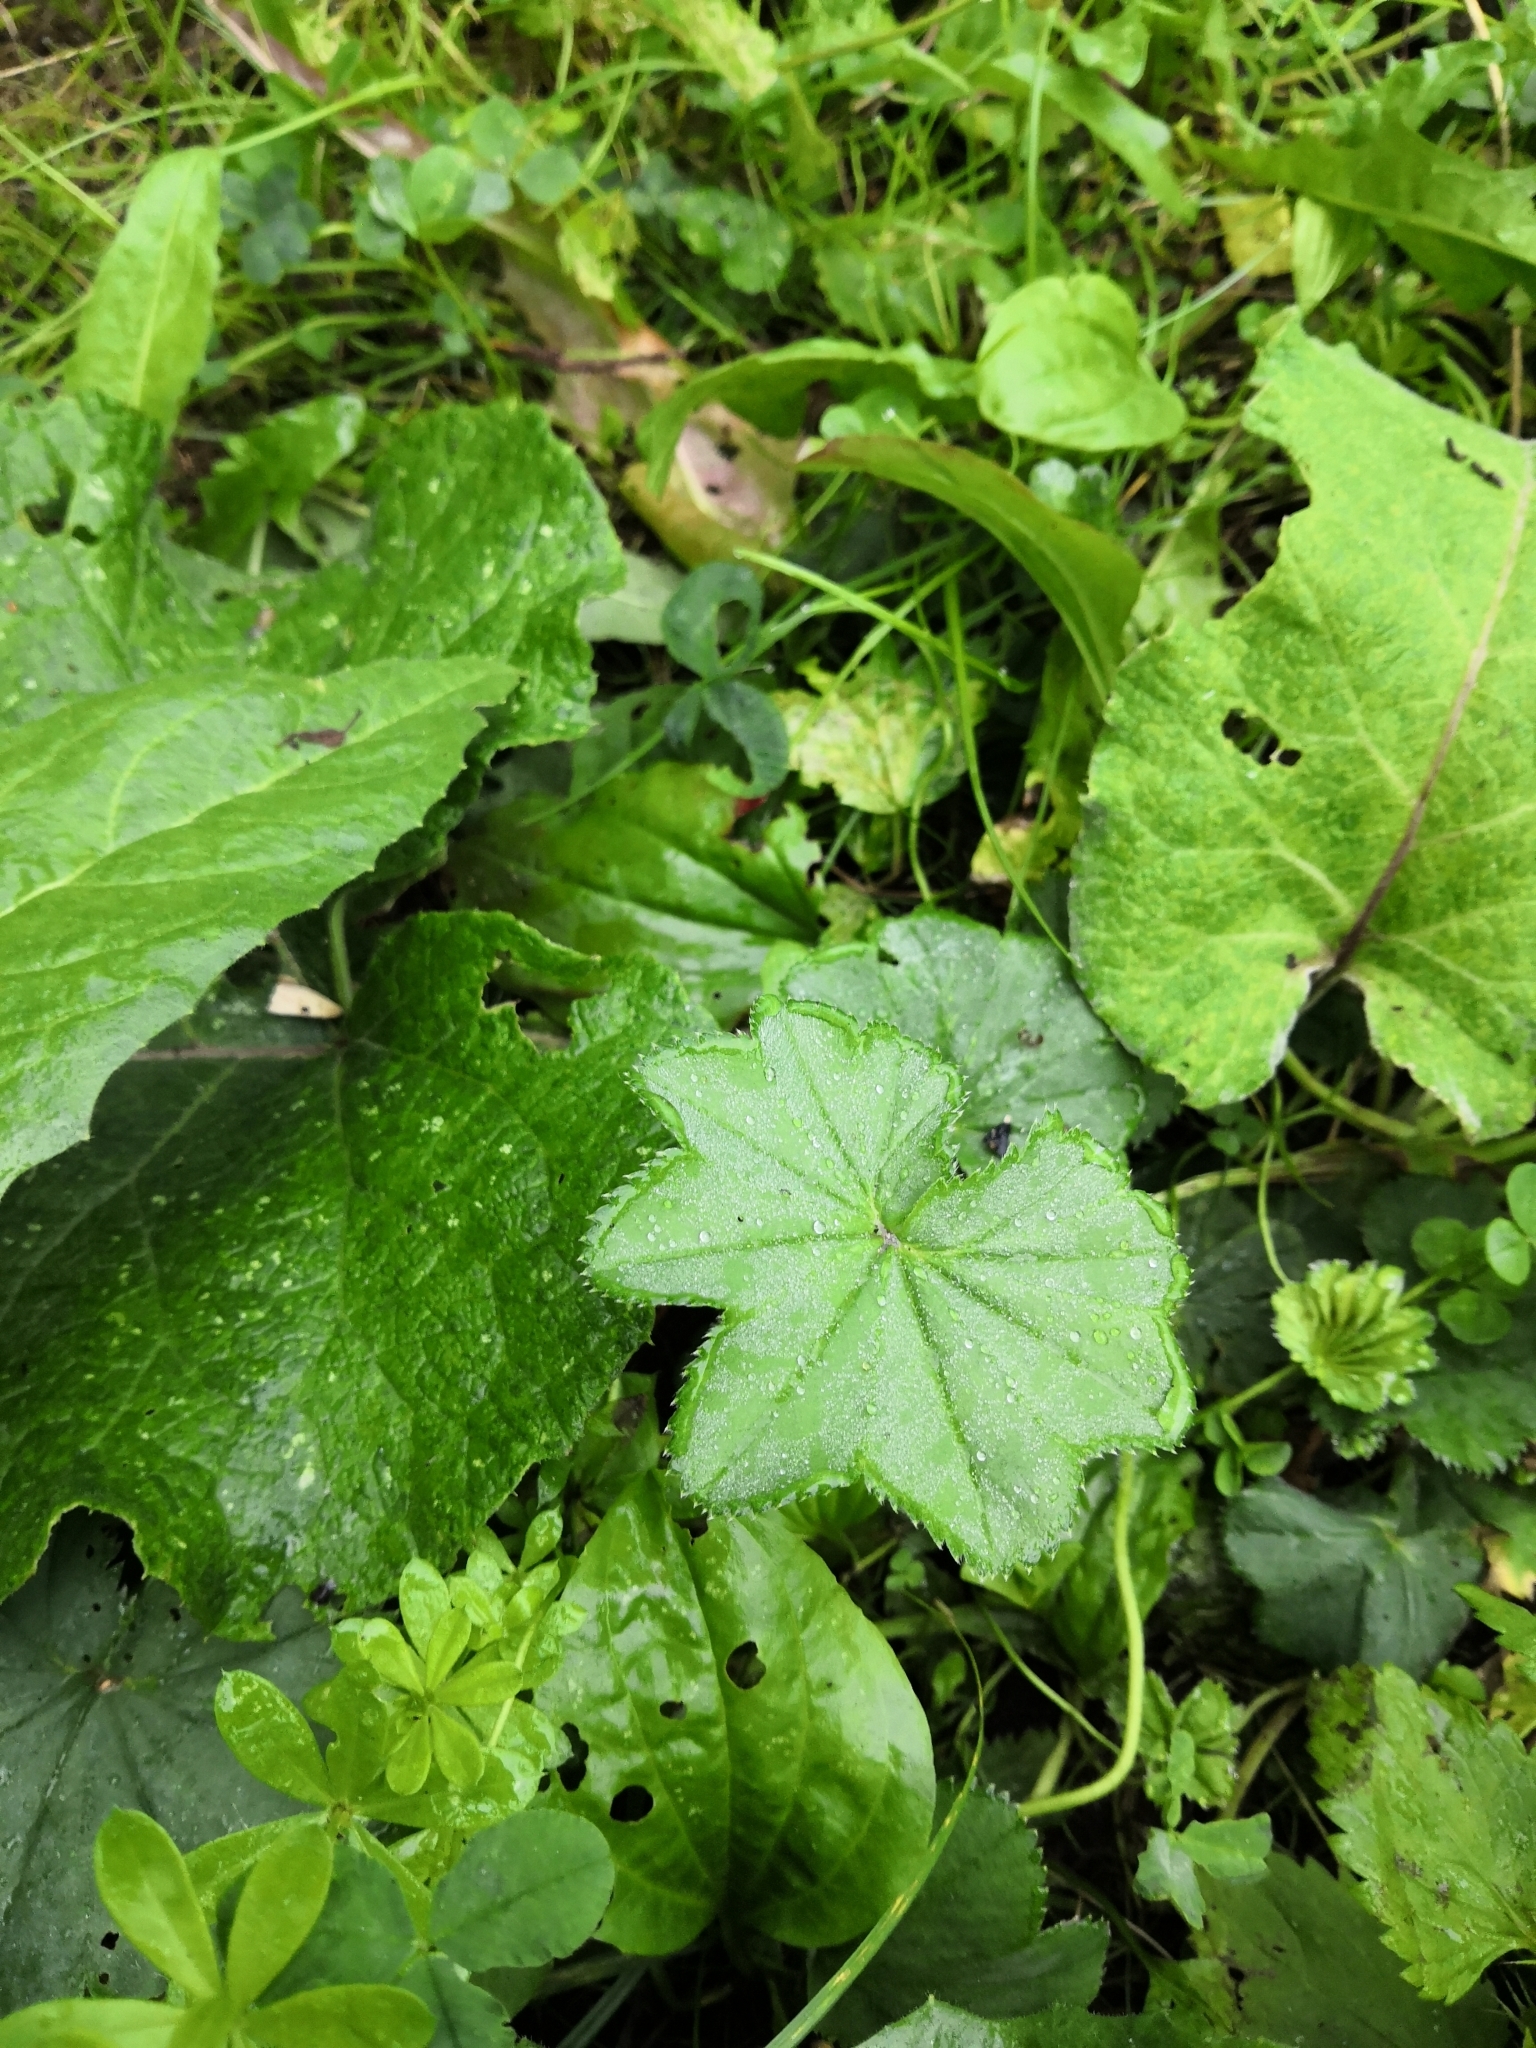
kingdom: Plantae
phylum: Tracheophyta
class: Magnoliopsida
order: Rosales
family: Rosaceae
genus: Alchemilla
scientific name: Alchemilla
